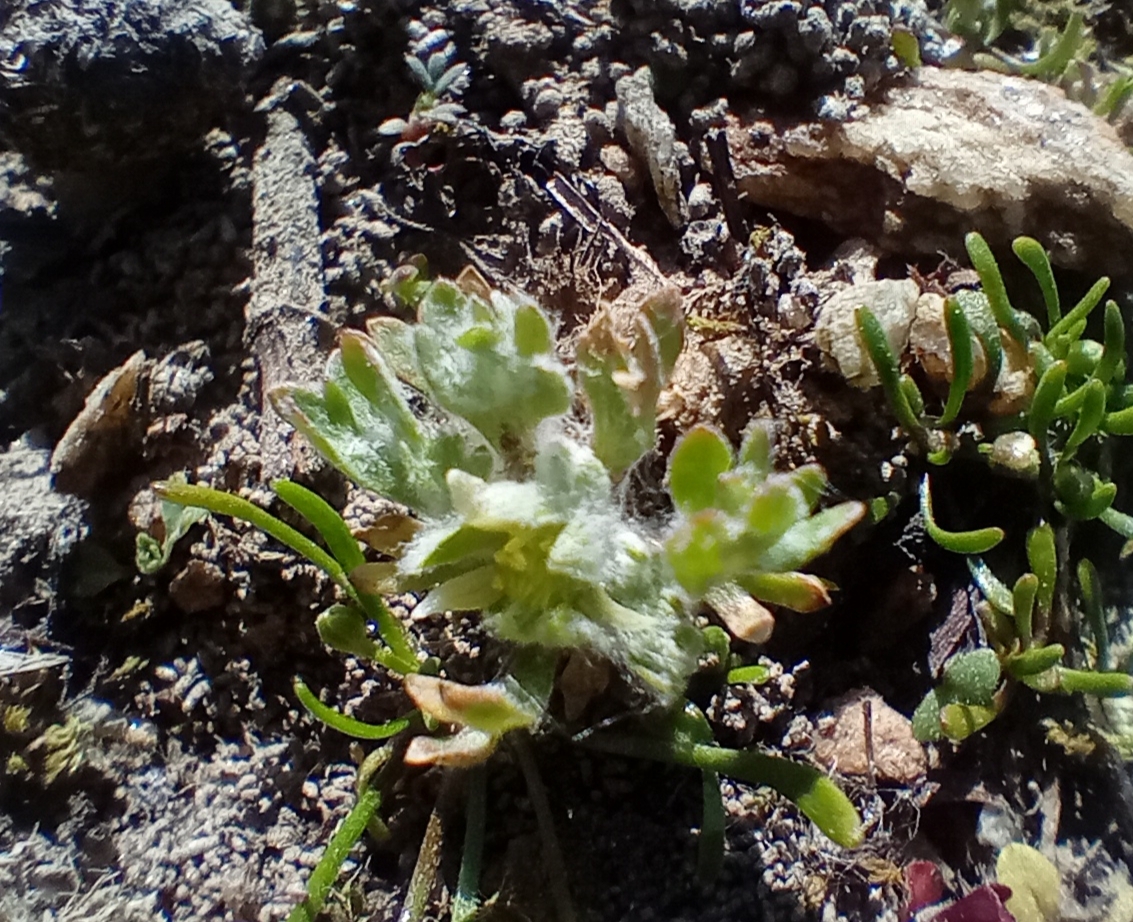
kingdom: Plantae
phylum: Tracheophyta
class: Magnoliopsida
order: Ranunculales
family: Ranunculaceae
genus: Ceratocephala
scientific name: Ceratocephala pungens
